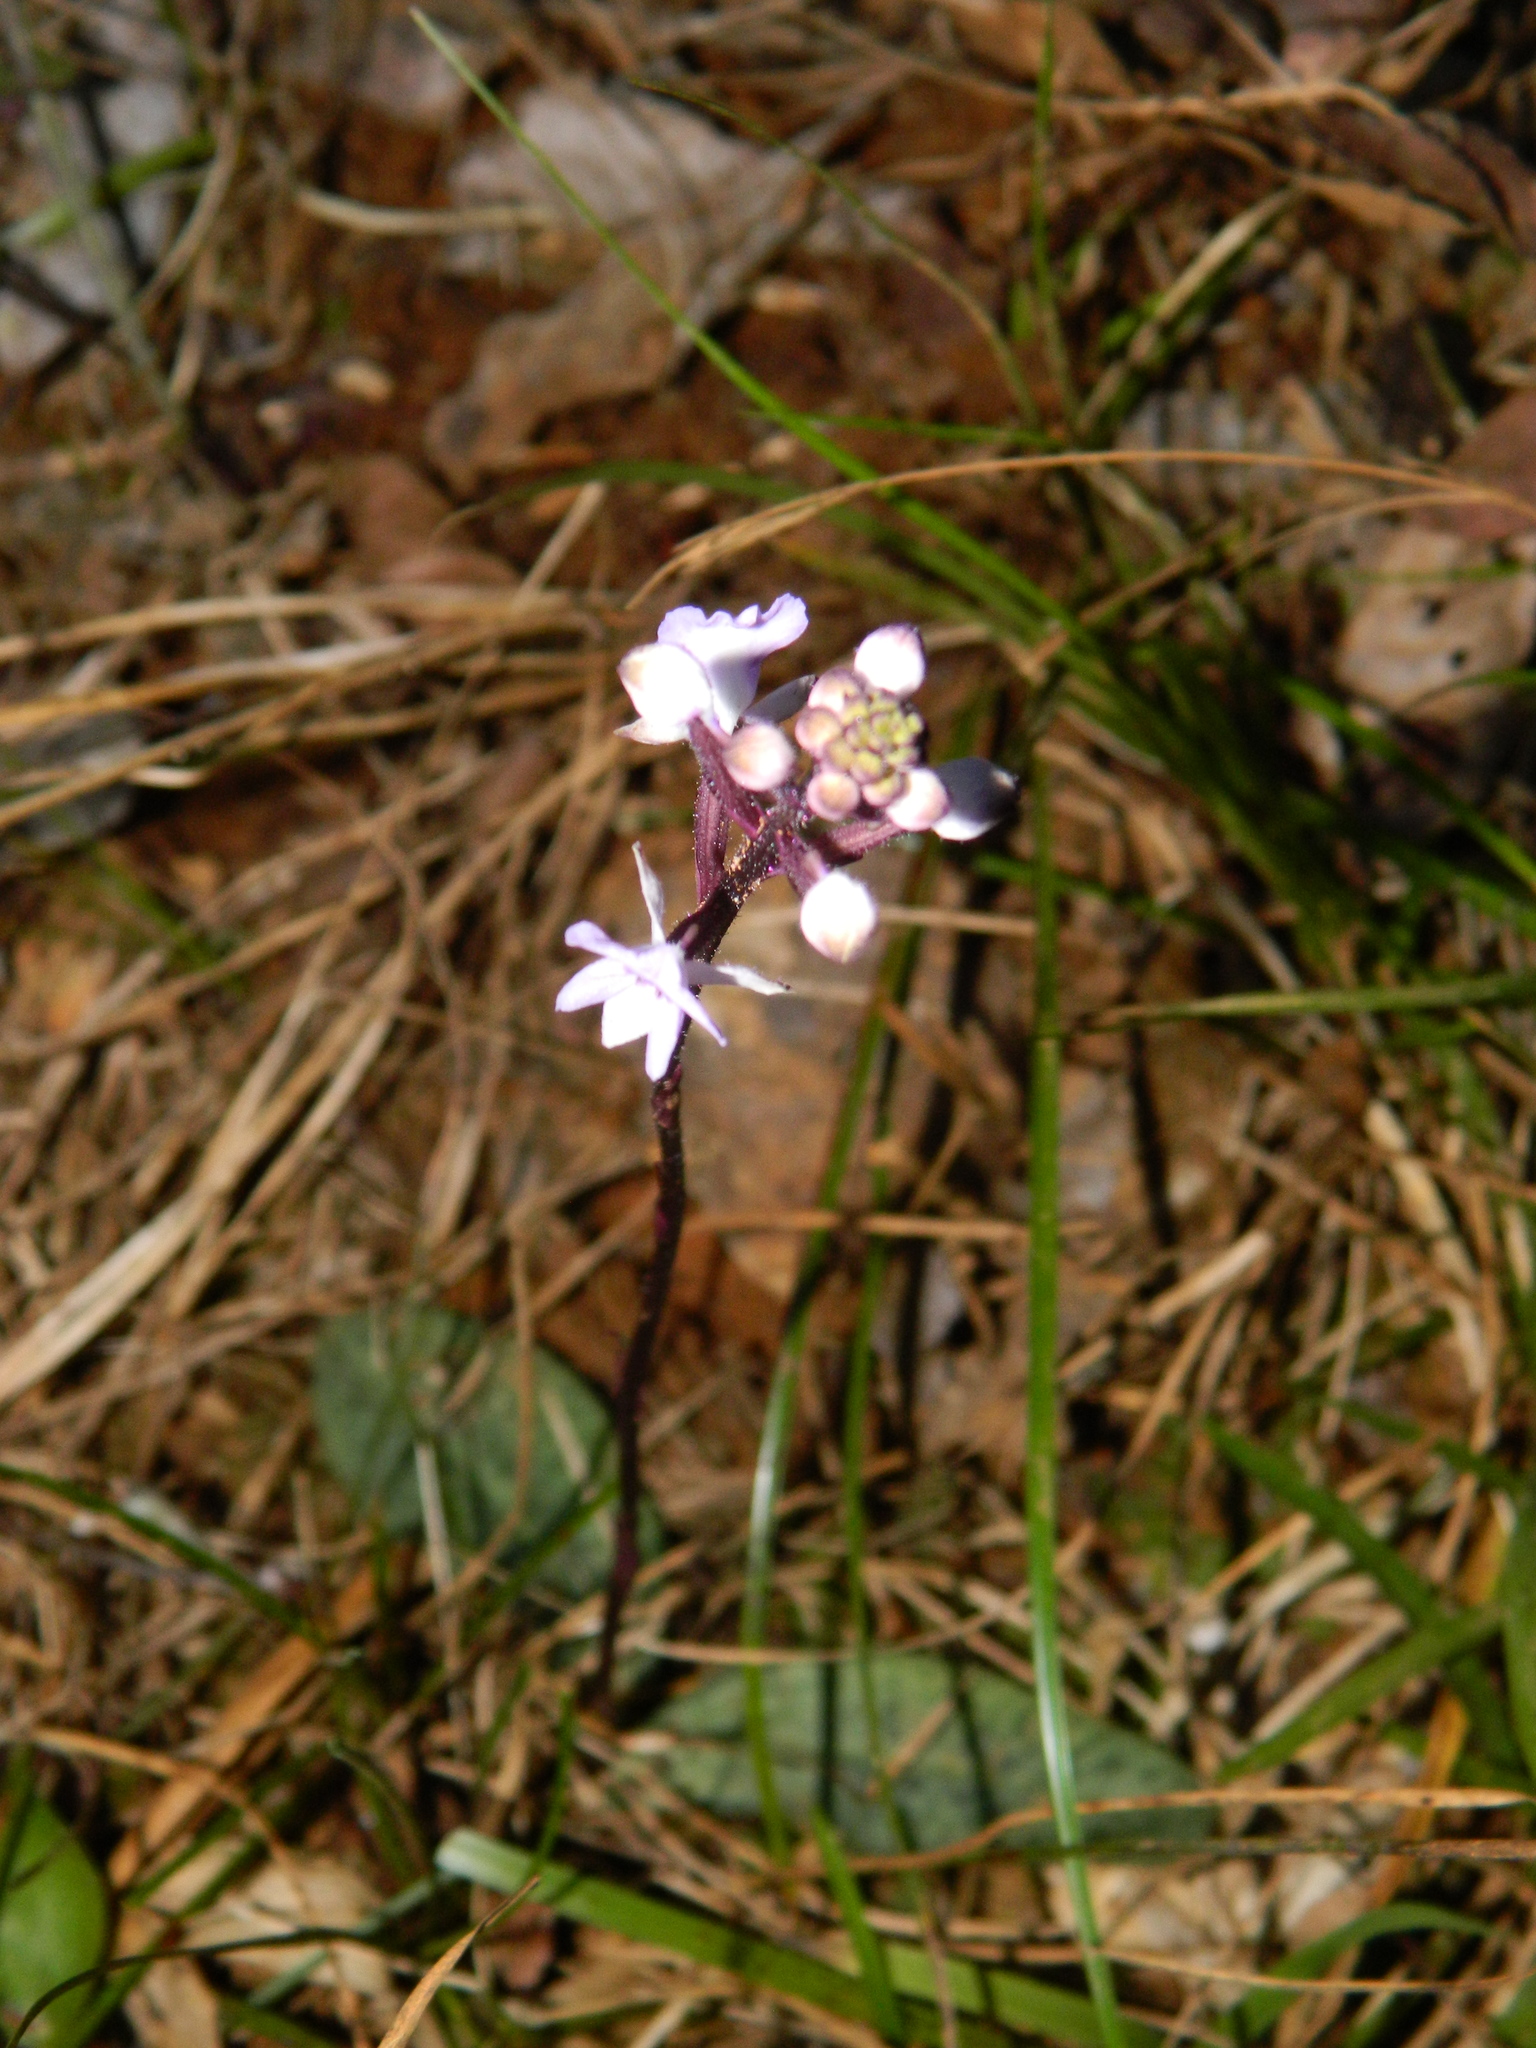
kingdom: Plantae
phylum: Tracheophyta
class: Liliopsida
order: Asparagales
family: Orchidaceae
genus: Cynorkis
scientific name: Cynorkis ridleyi
